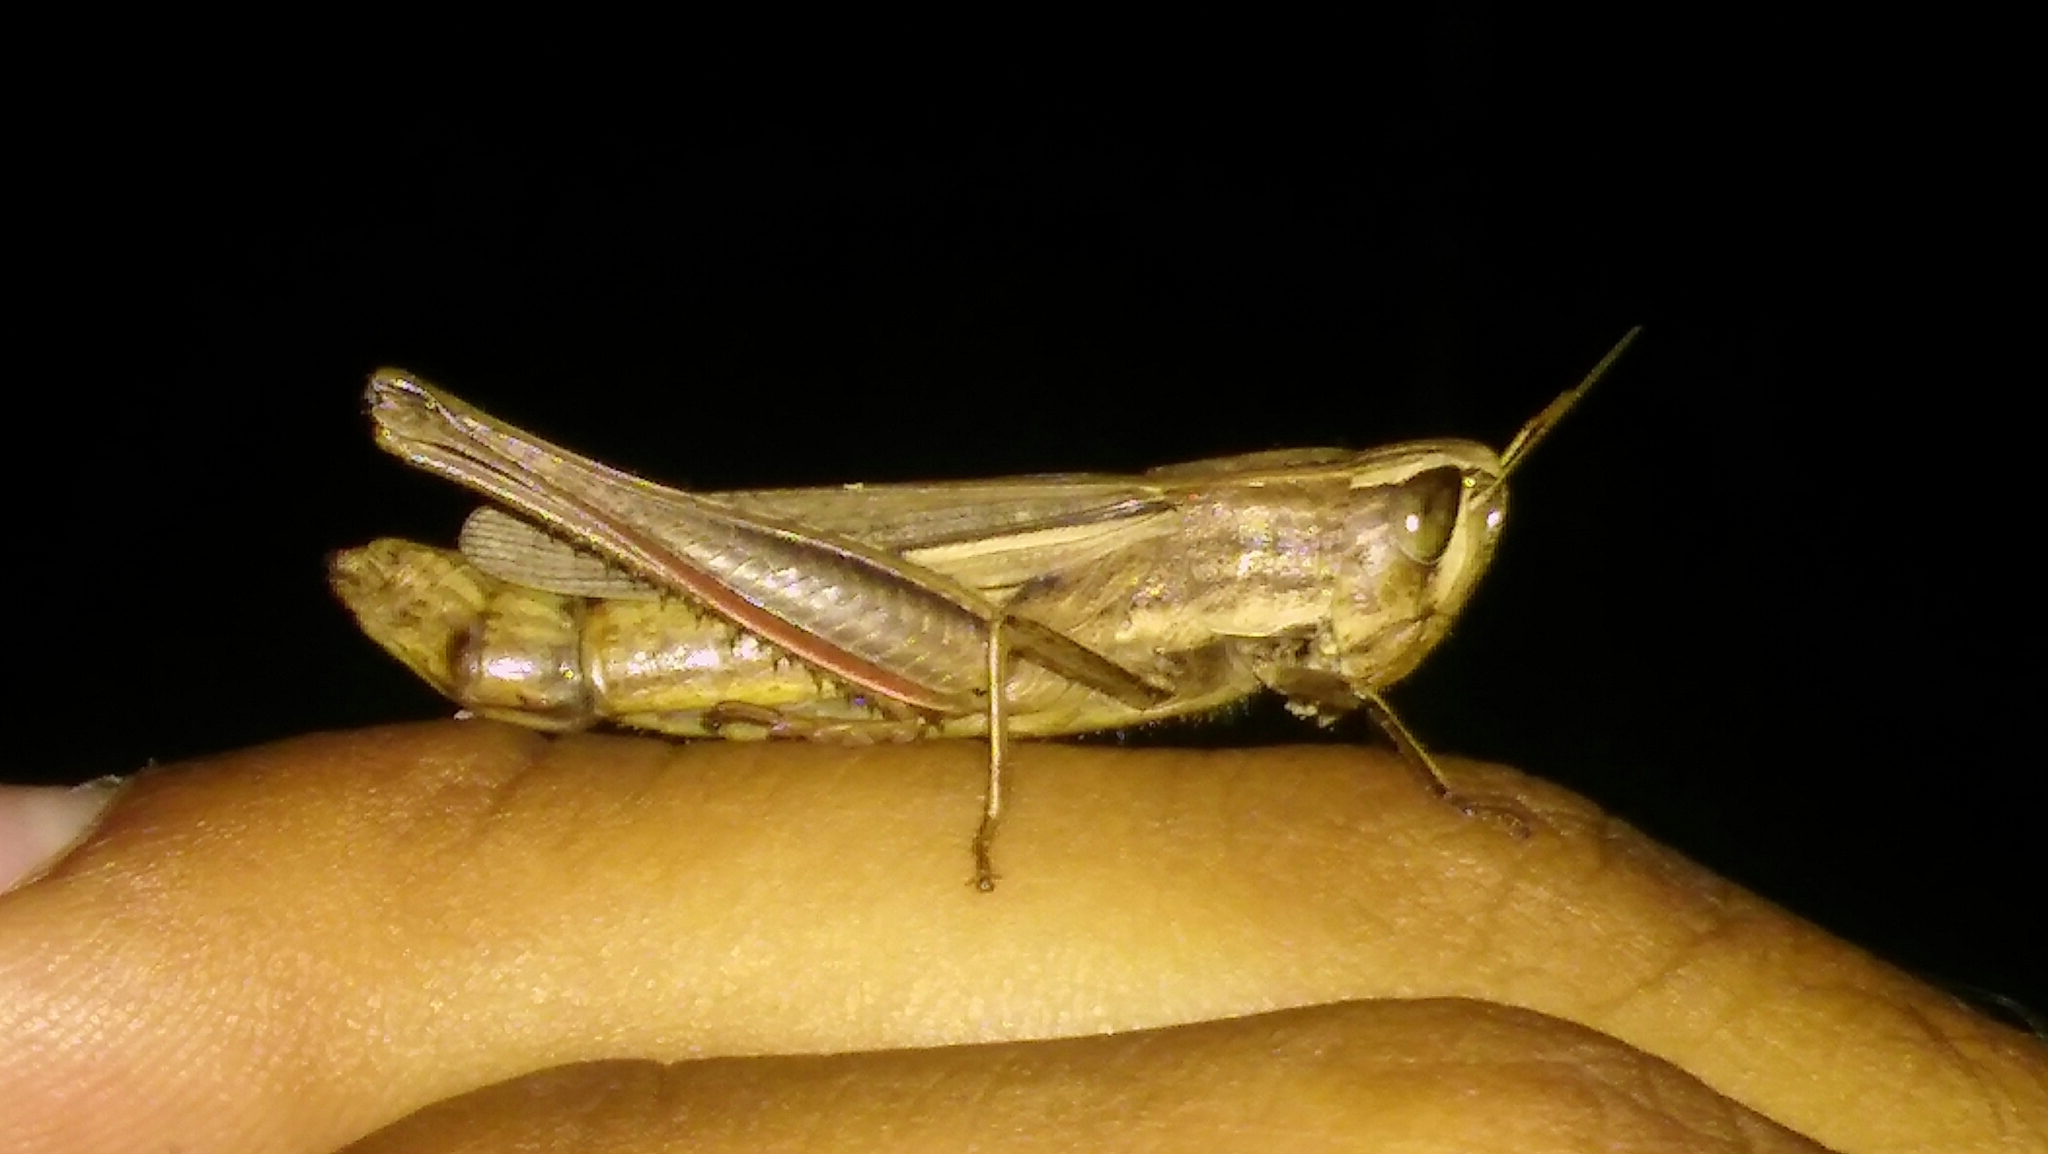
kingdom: Animalia
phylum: Arthropoda
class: Insecta
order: Orthoptera
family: Acrididae
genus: Amblytropidia
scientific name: Amblytropidia australis
